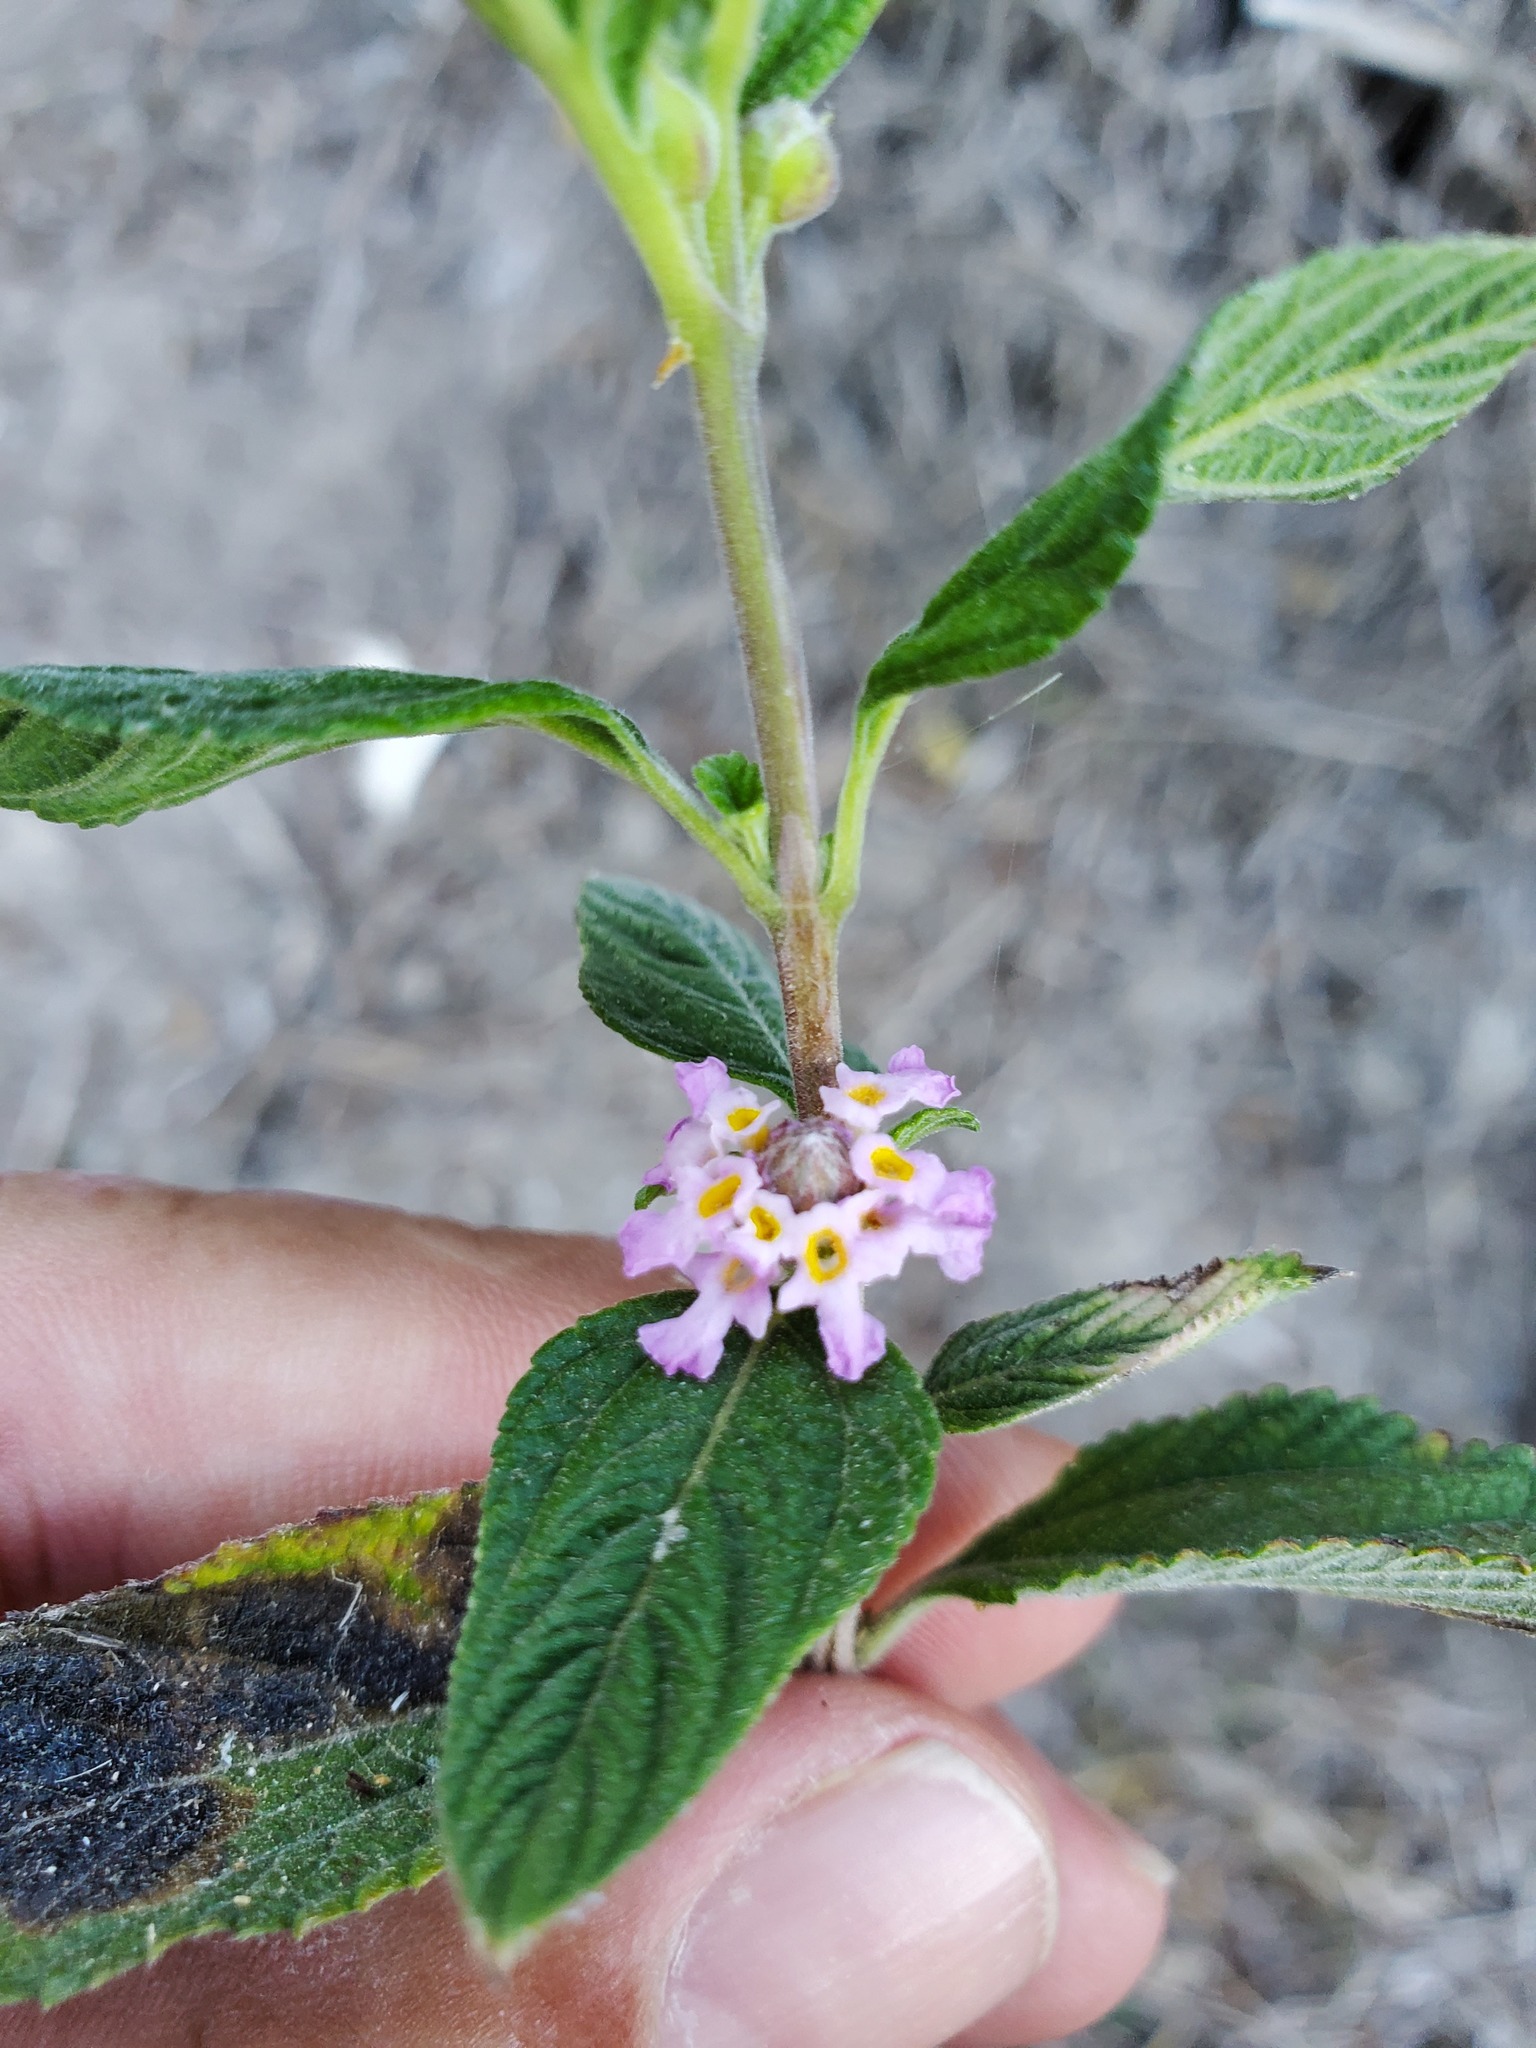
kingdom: Plantae
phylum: Tracheophyta
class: Magnoliopsida
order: Lamiales
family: Verbenaceae
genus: Lippia
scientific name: Lippia alba
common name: Bushy matgrass
